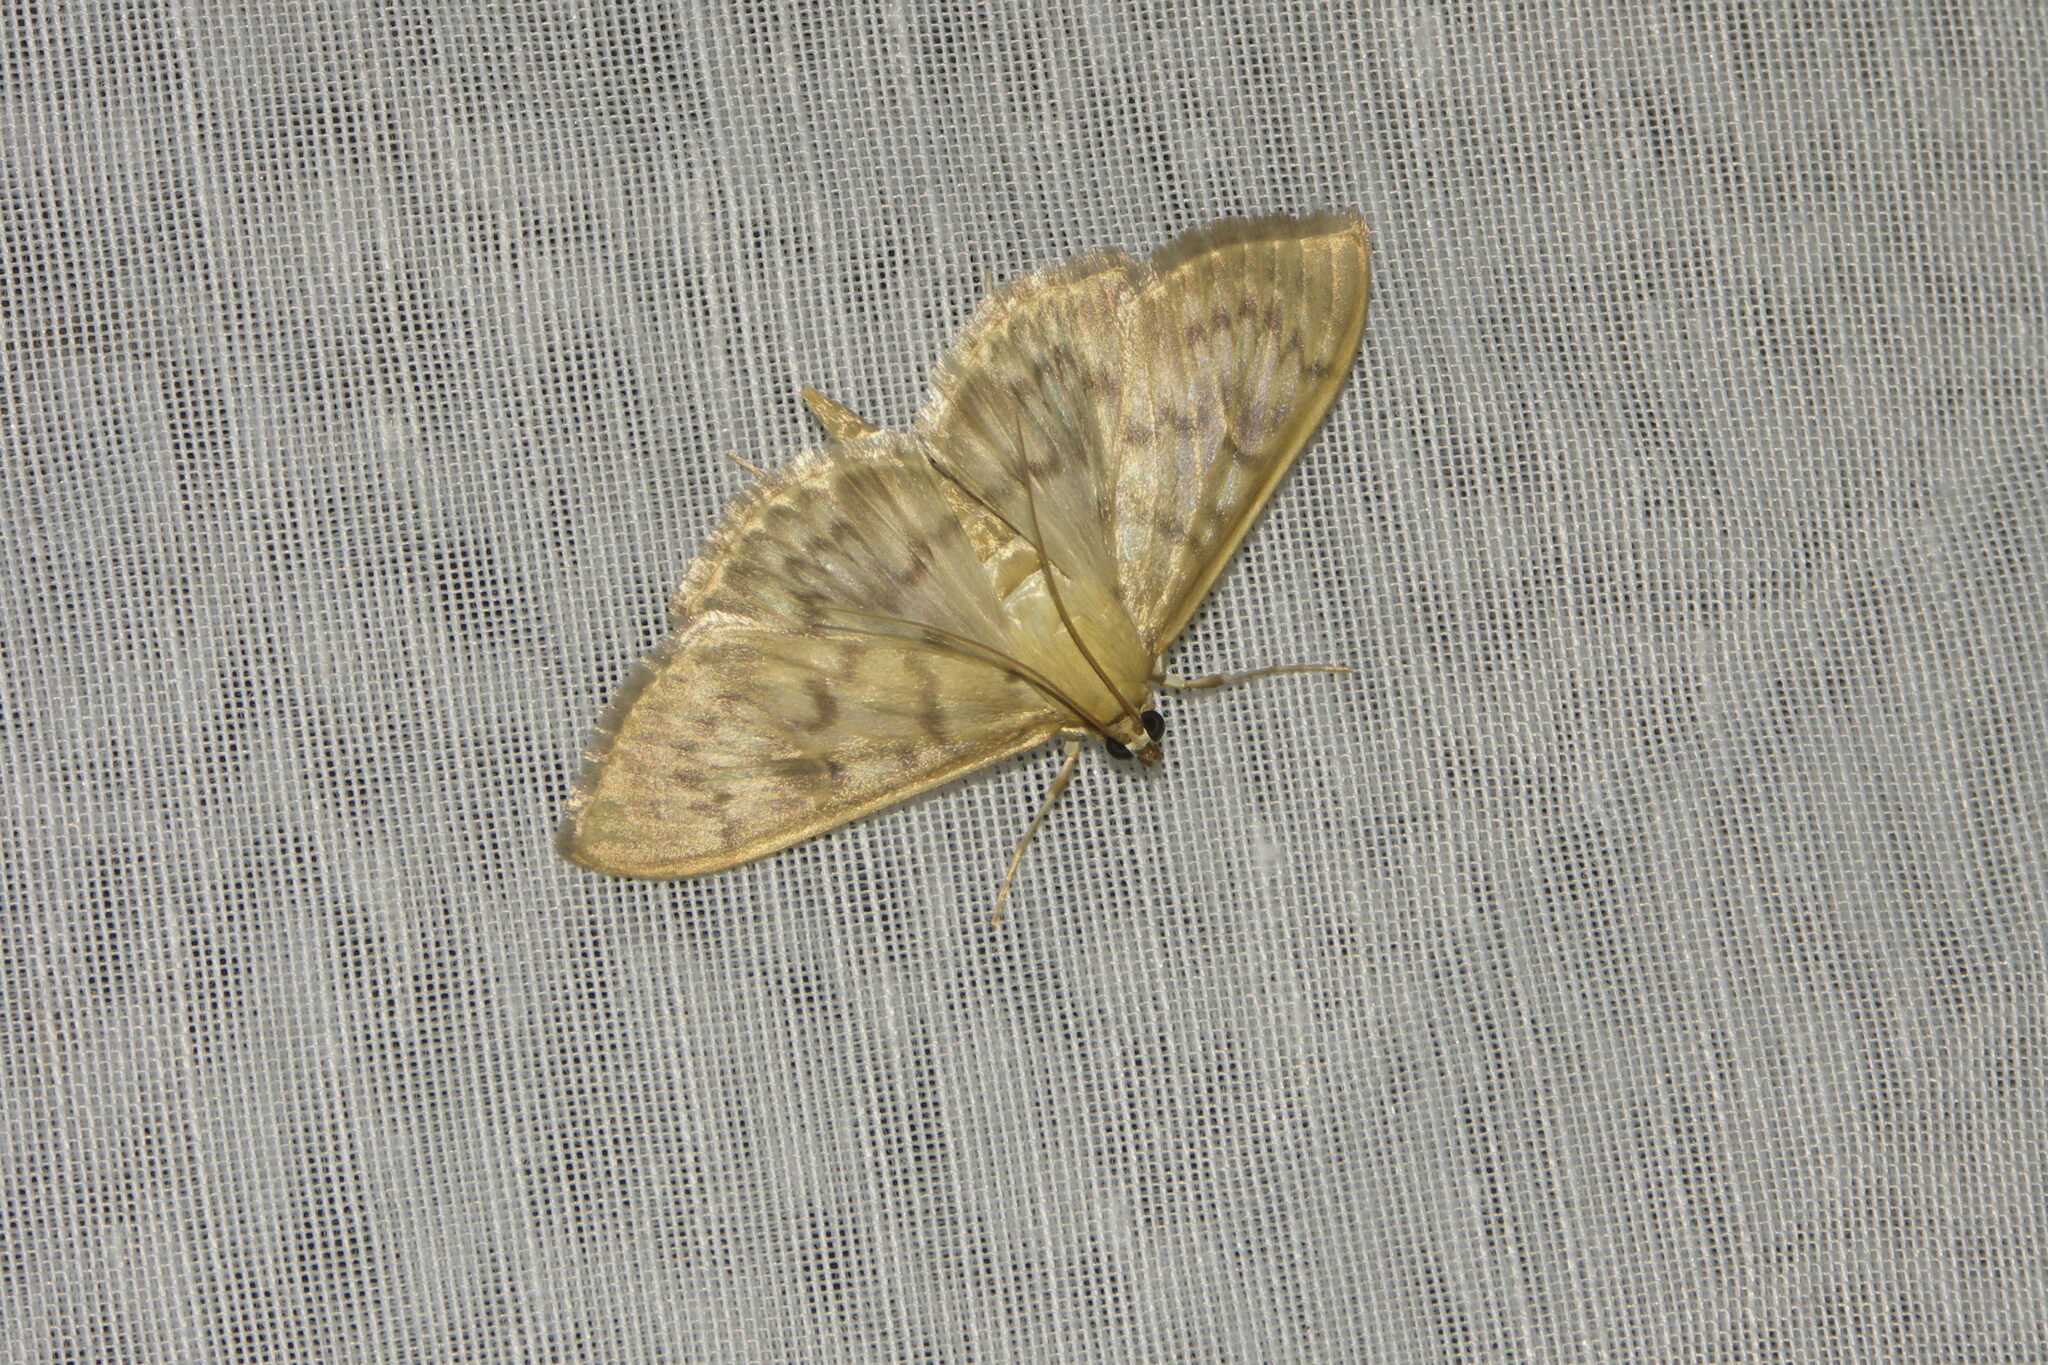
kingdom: Animalia
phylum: Arthropoda
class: Insecta
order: Lepidoptera
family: Crambidae
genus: Patania
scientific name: Patania ruralis
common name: Mother of pearl
